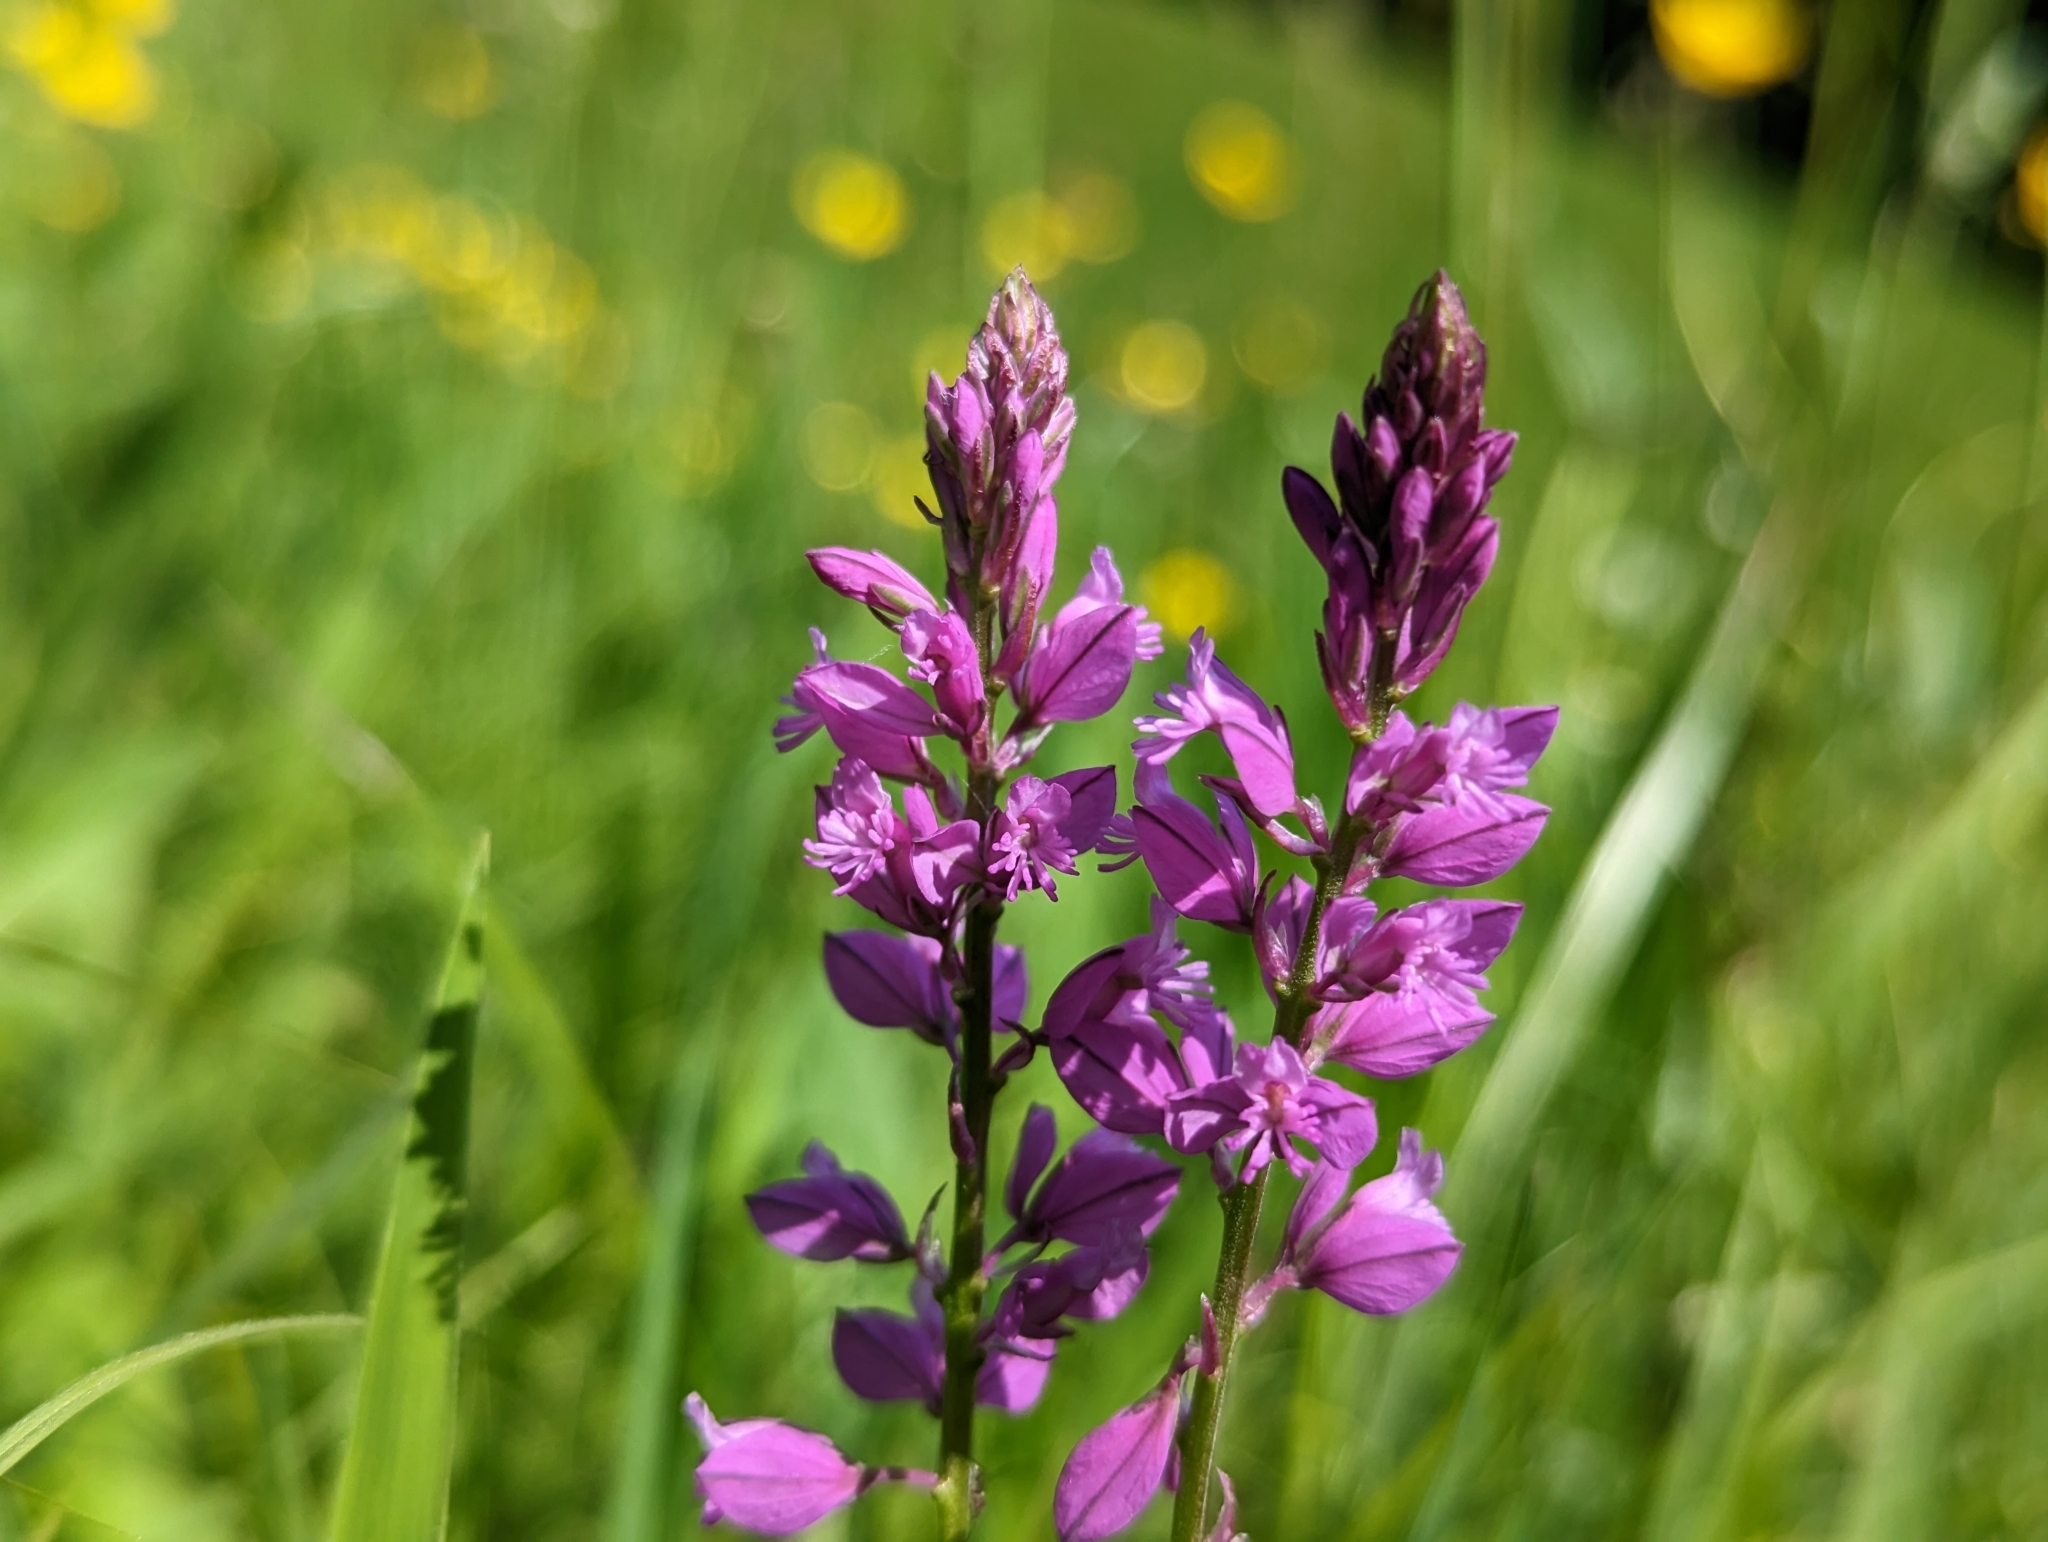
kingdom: Plantae
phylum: Tracheophyta
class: Magnoliopsida
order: Fabales
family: Polygalaceae
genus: Polygala
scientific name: Polygala comosa
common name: Tufted milkwort
